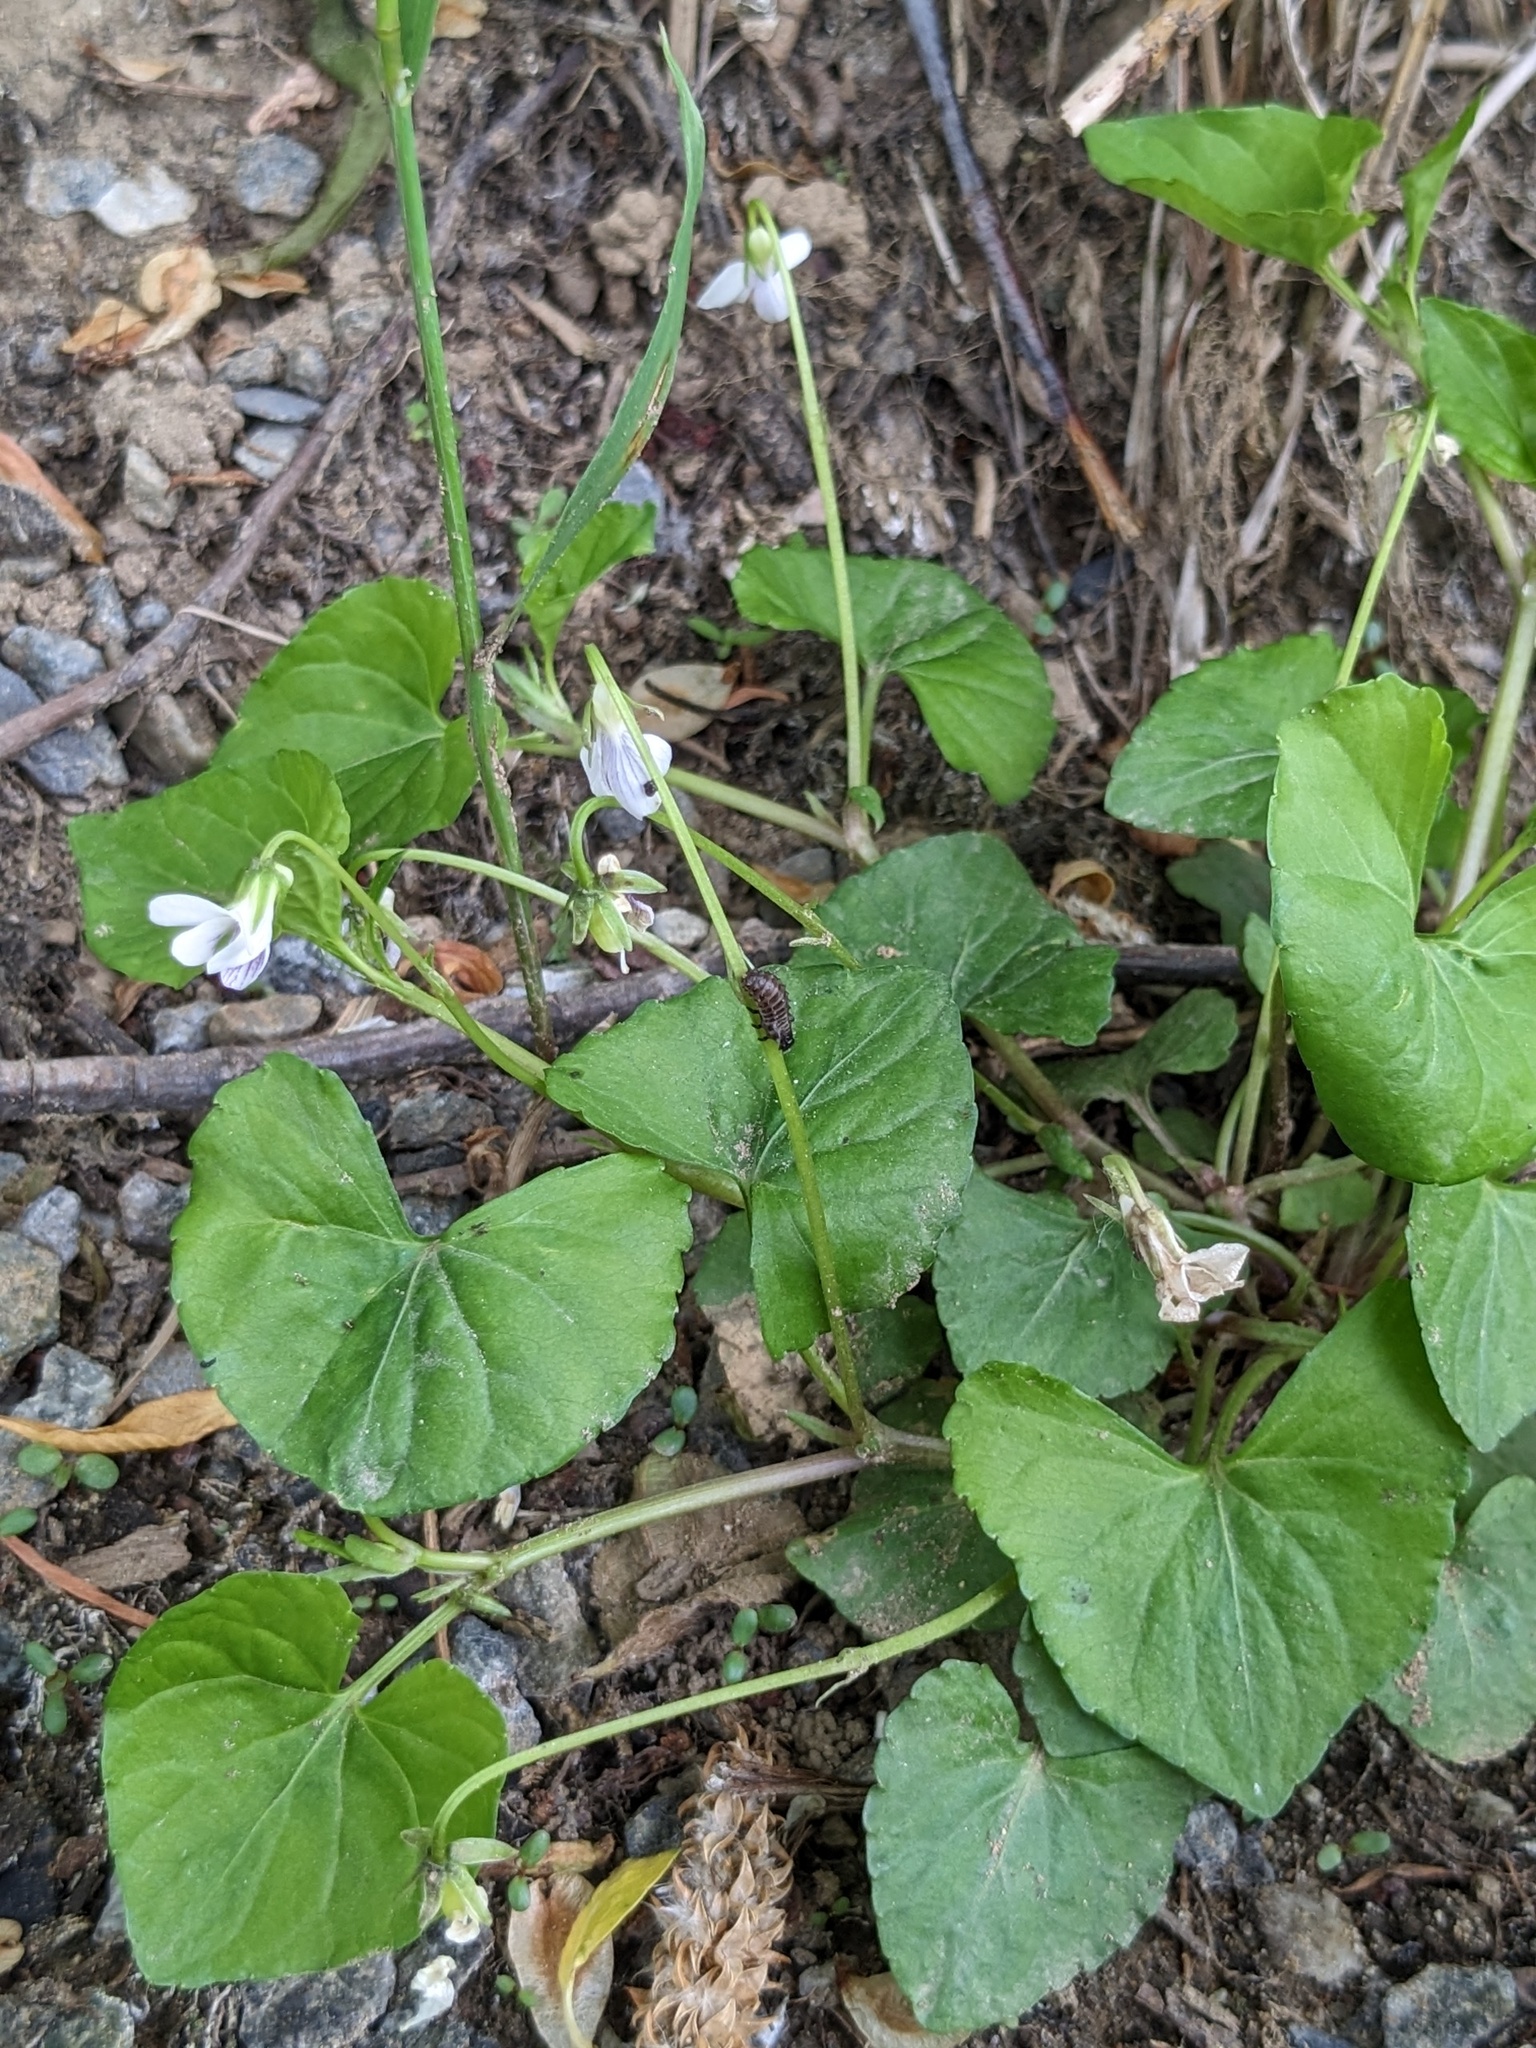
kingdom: Plantae
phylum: Tracheophyta
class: Magnoliopsida
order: Malpighiales
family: Violaceae
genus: Viola
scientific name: Viola
